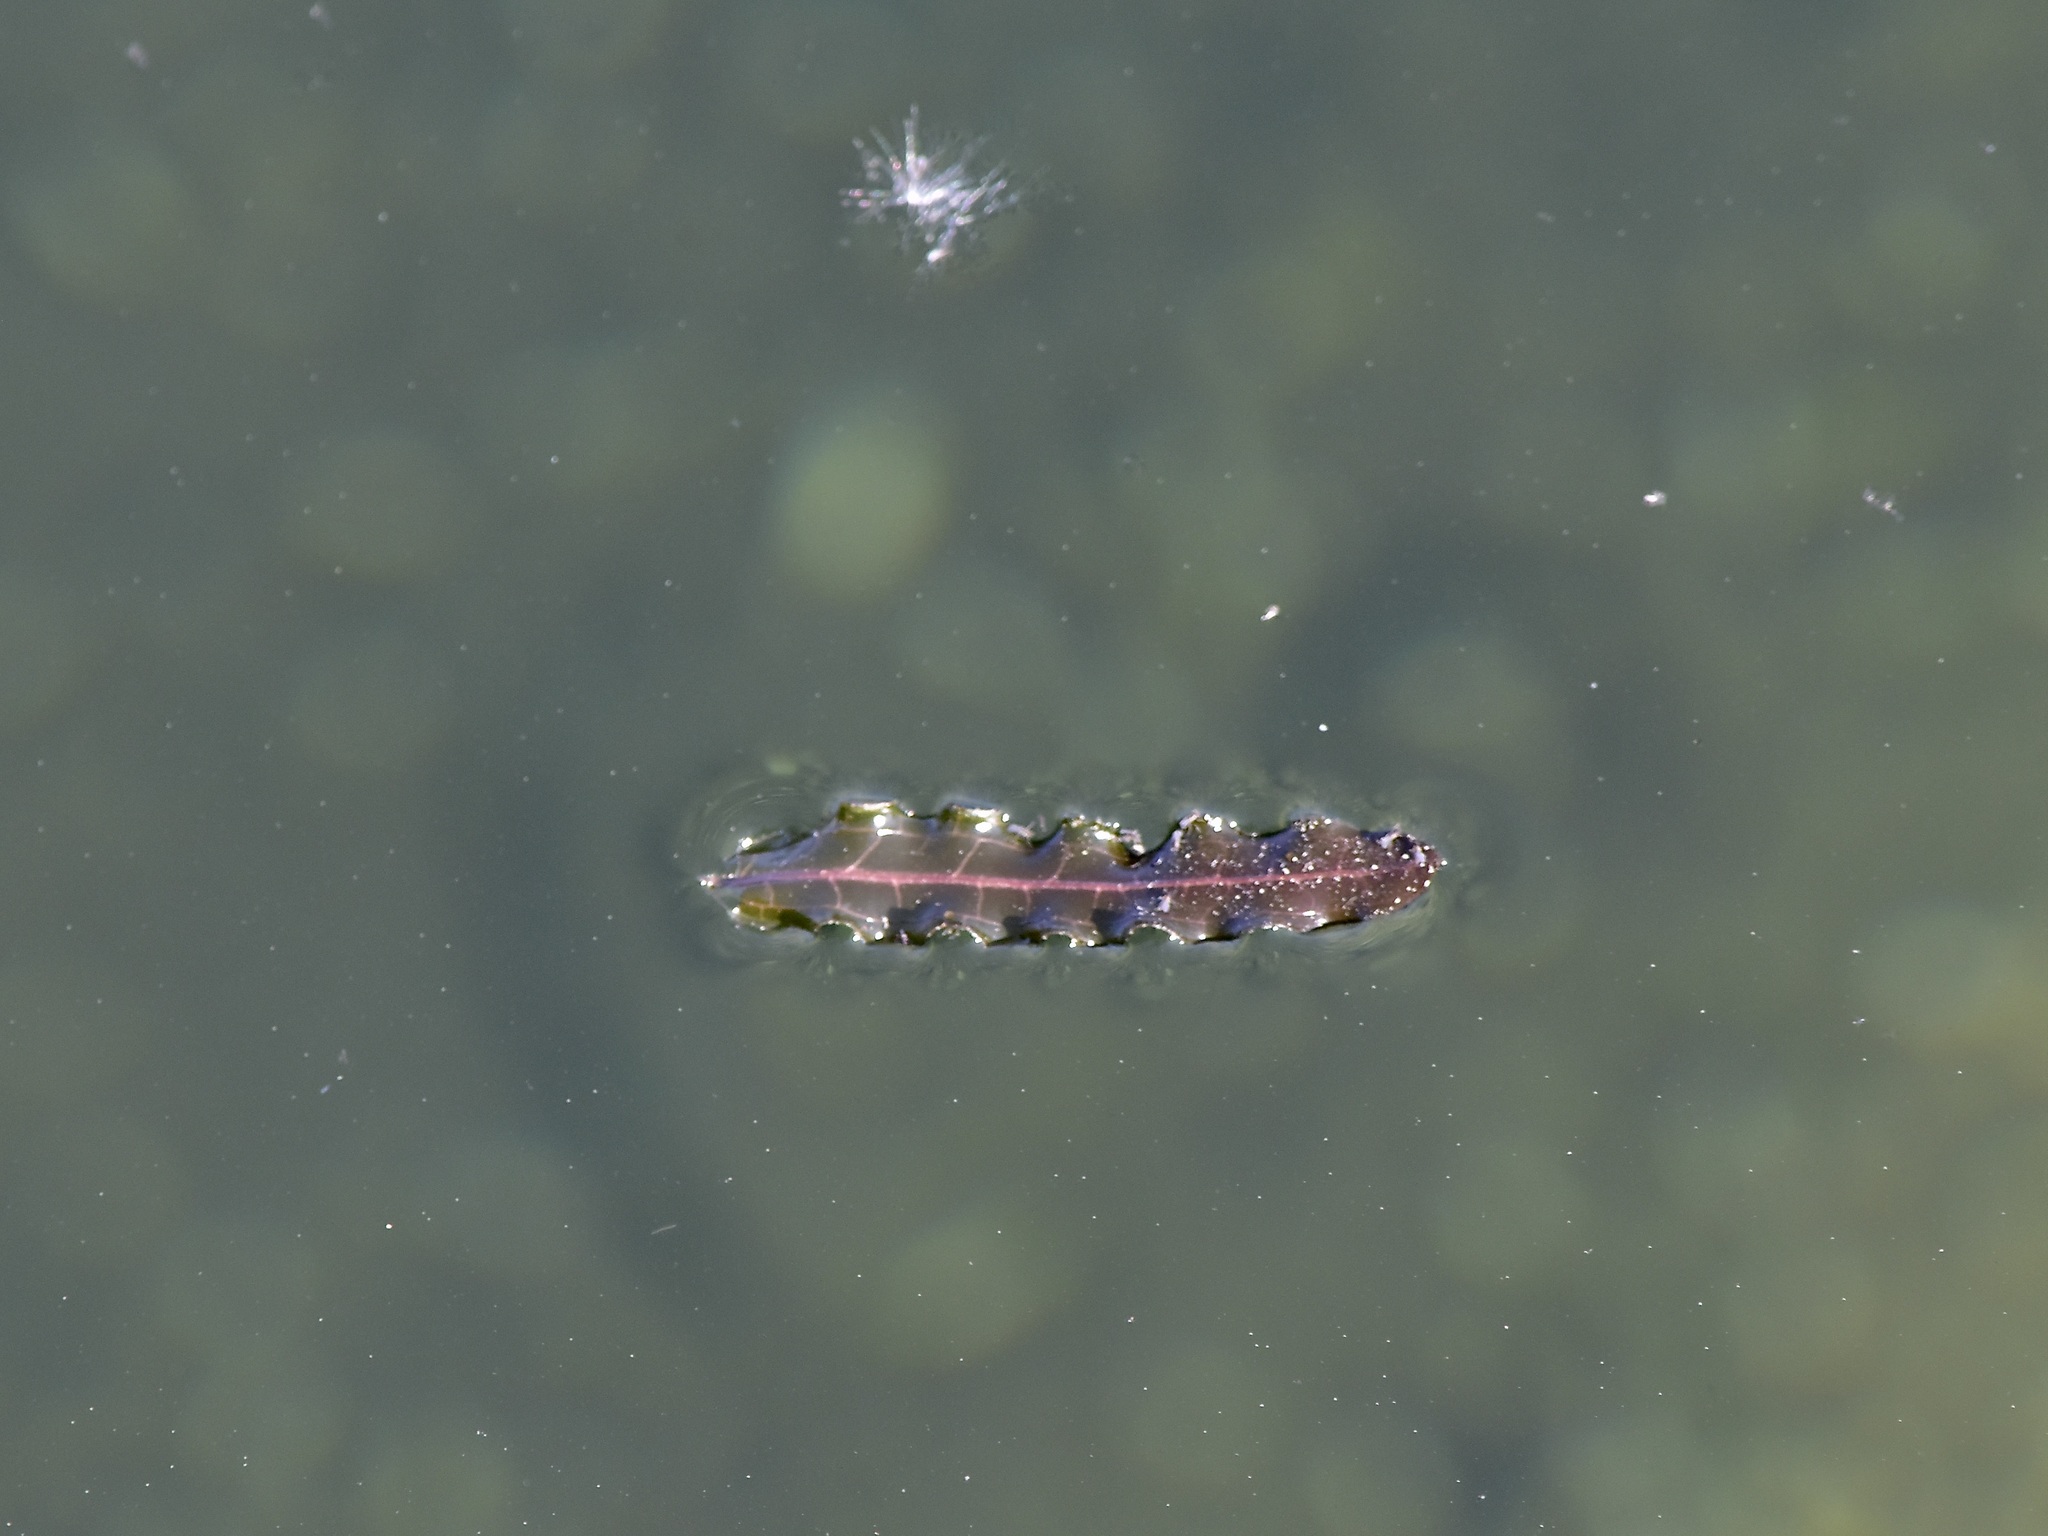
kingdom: Plantae
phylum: Tracheophyta
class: Liliopsida
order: Alismatales
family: Potamogetonaceae
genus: Potamogeton
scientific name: Potamogeton crispus
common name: Curled pondweed
